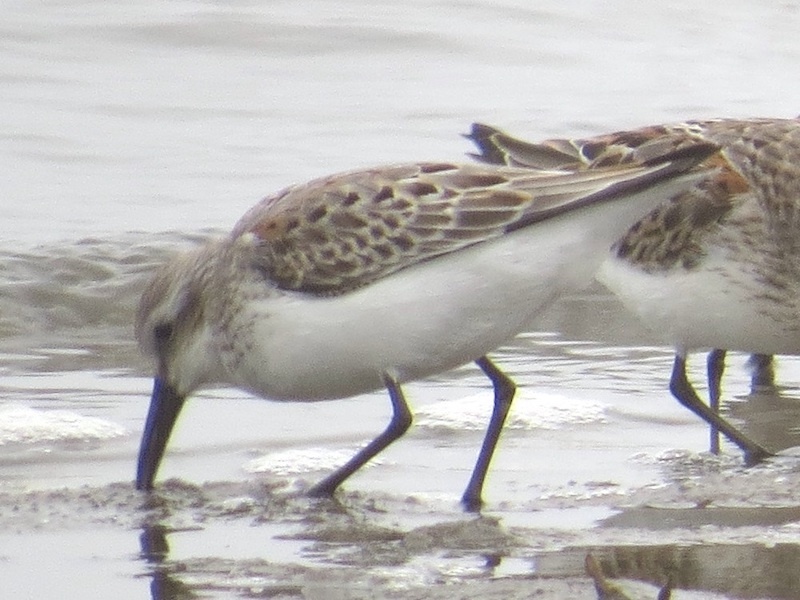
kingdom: Animalia
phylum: Chordata
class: Aves
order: Charadriiformes
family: Scolopacidae
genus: Calidris
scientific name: Calidris mauri
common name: Western sandpiper
